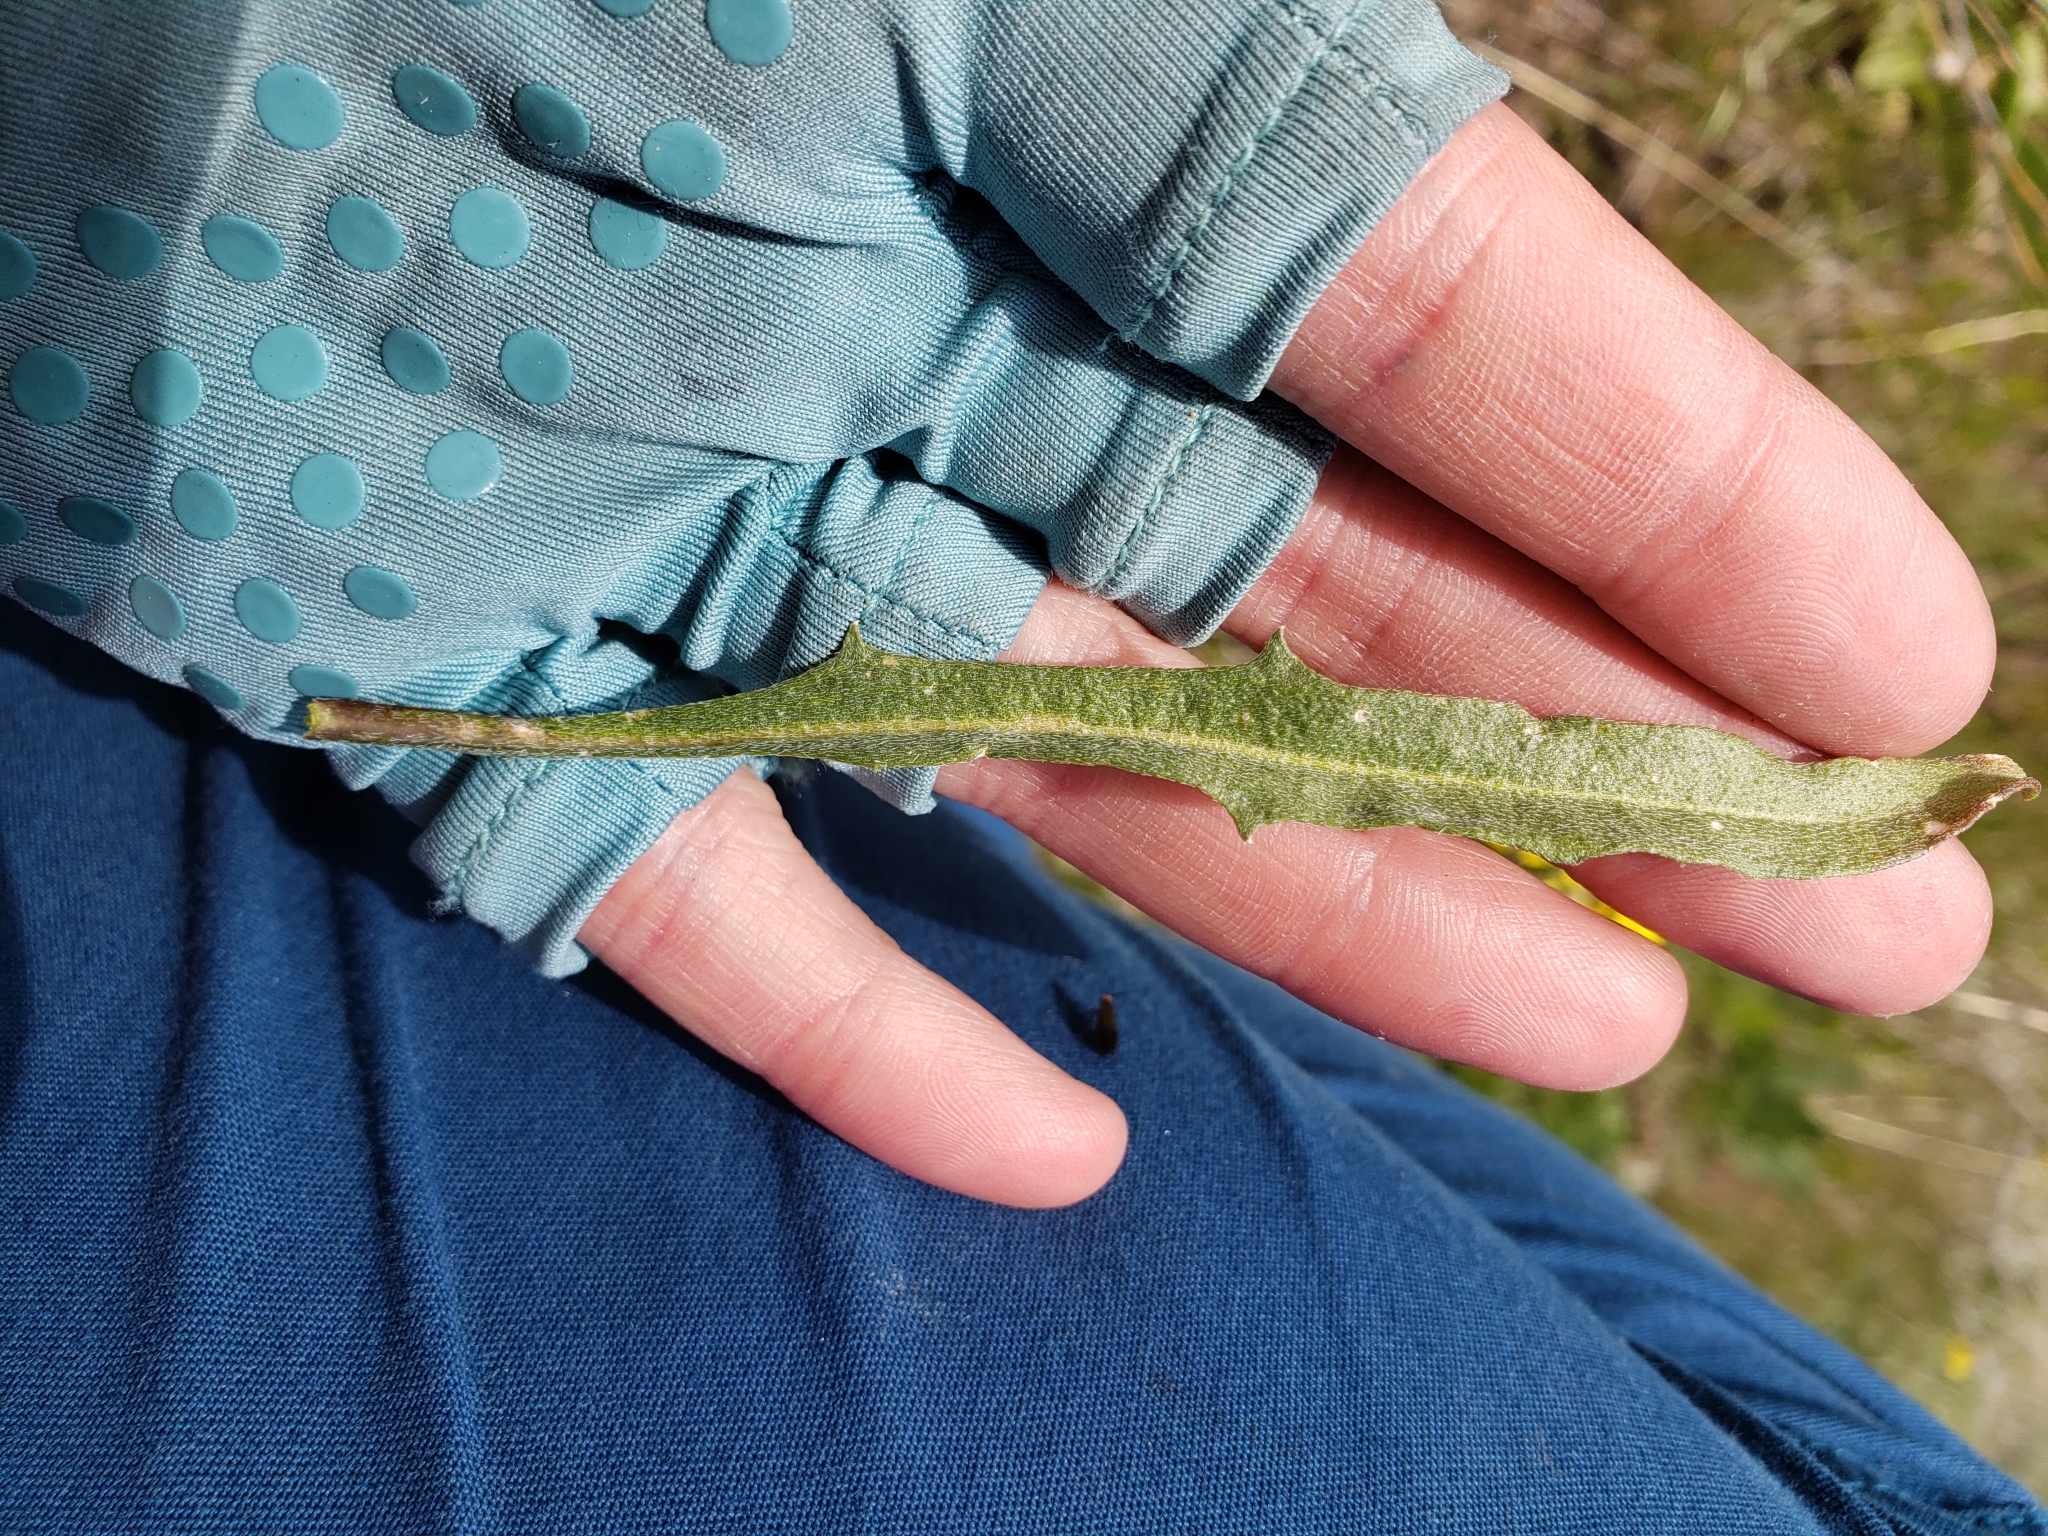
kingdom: Plantae
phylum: Tracheophyta
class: Magnoliopsida
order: Brassicales
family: Brassicaceae
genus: Erysimum
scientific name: Erysimum capitatum
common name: Western wallflower
